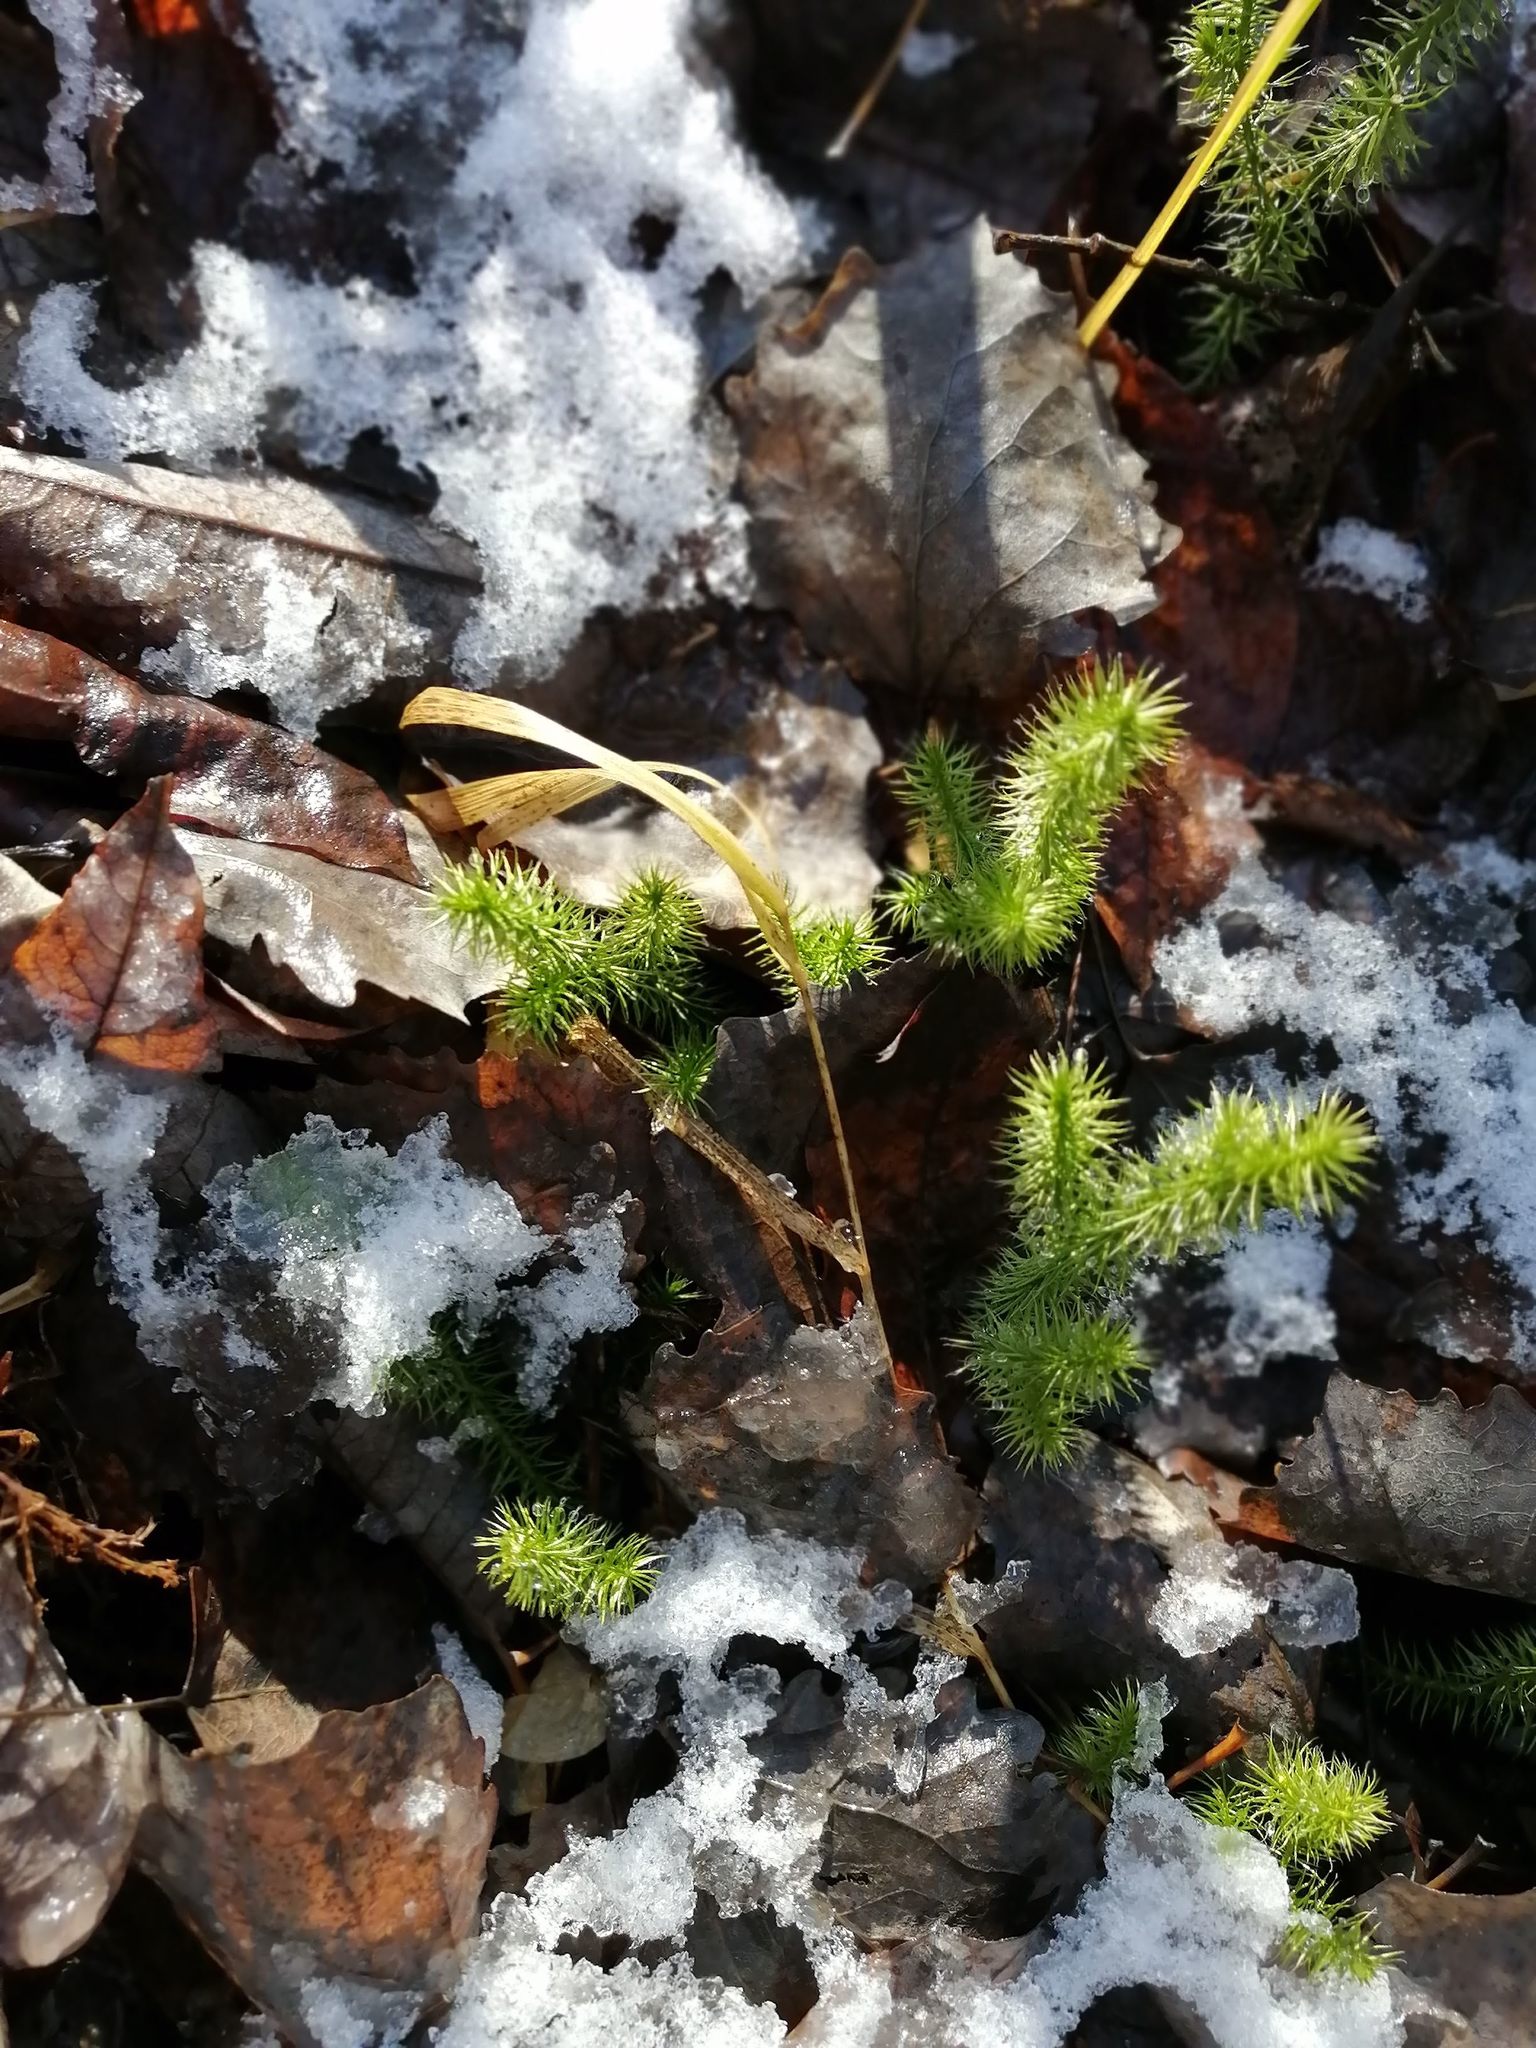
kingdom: Plantae
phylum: Tracheophyta
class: Lycopodiopsida
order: Lycopodiales
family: Lycopodiaceae
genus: Lycopodium
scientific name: Lycopodium clavatum
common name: Stag's-horn clubmoss
